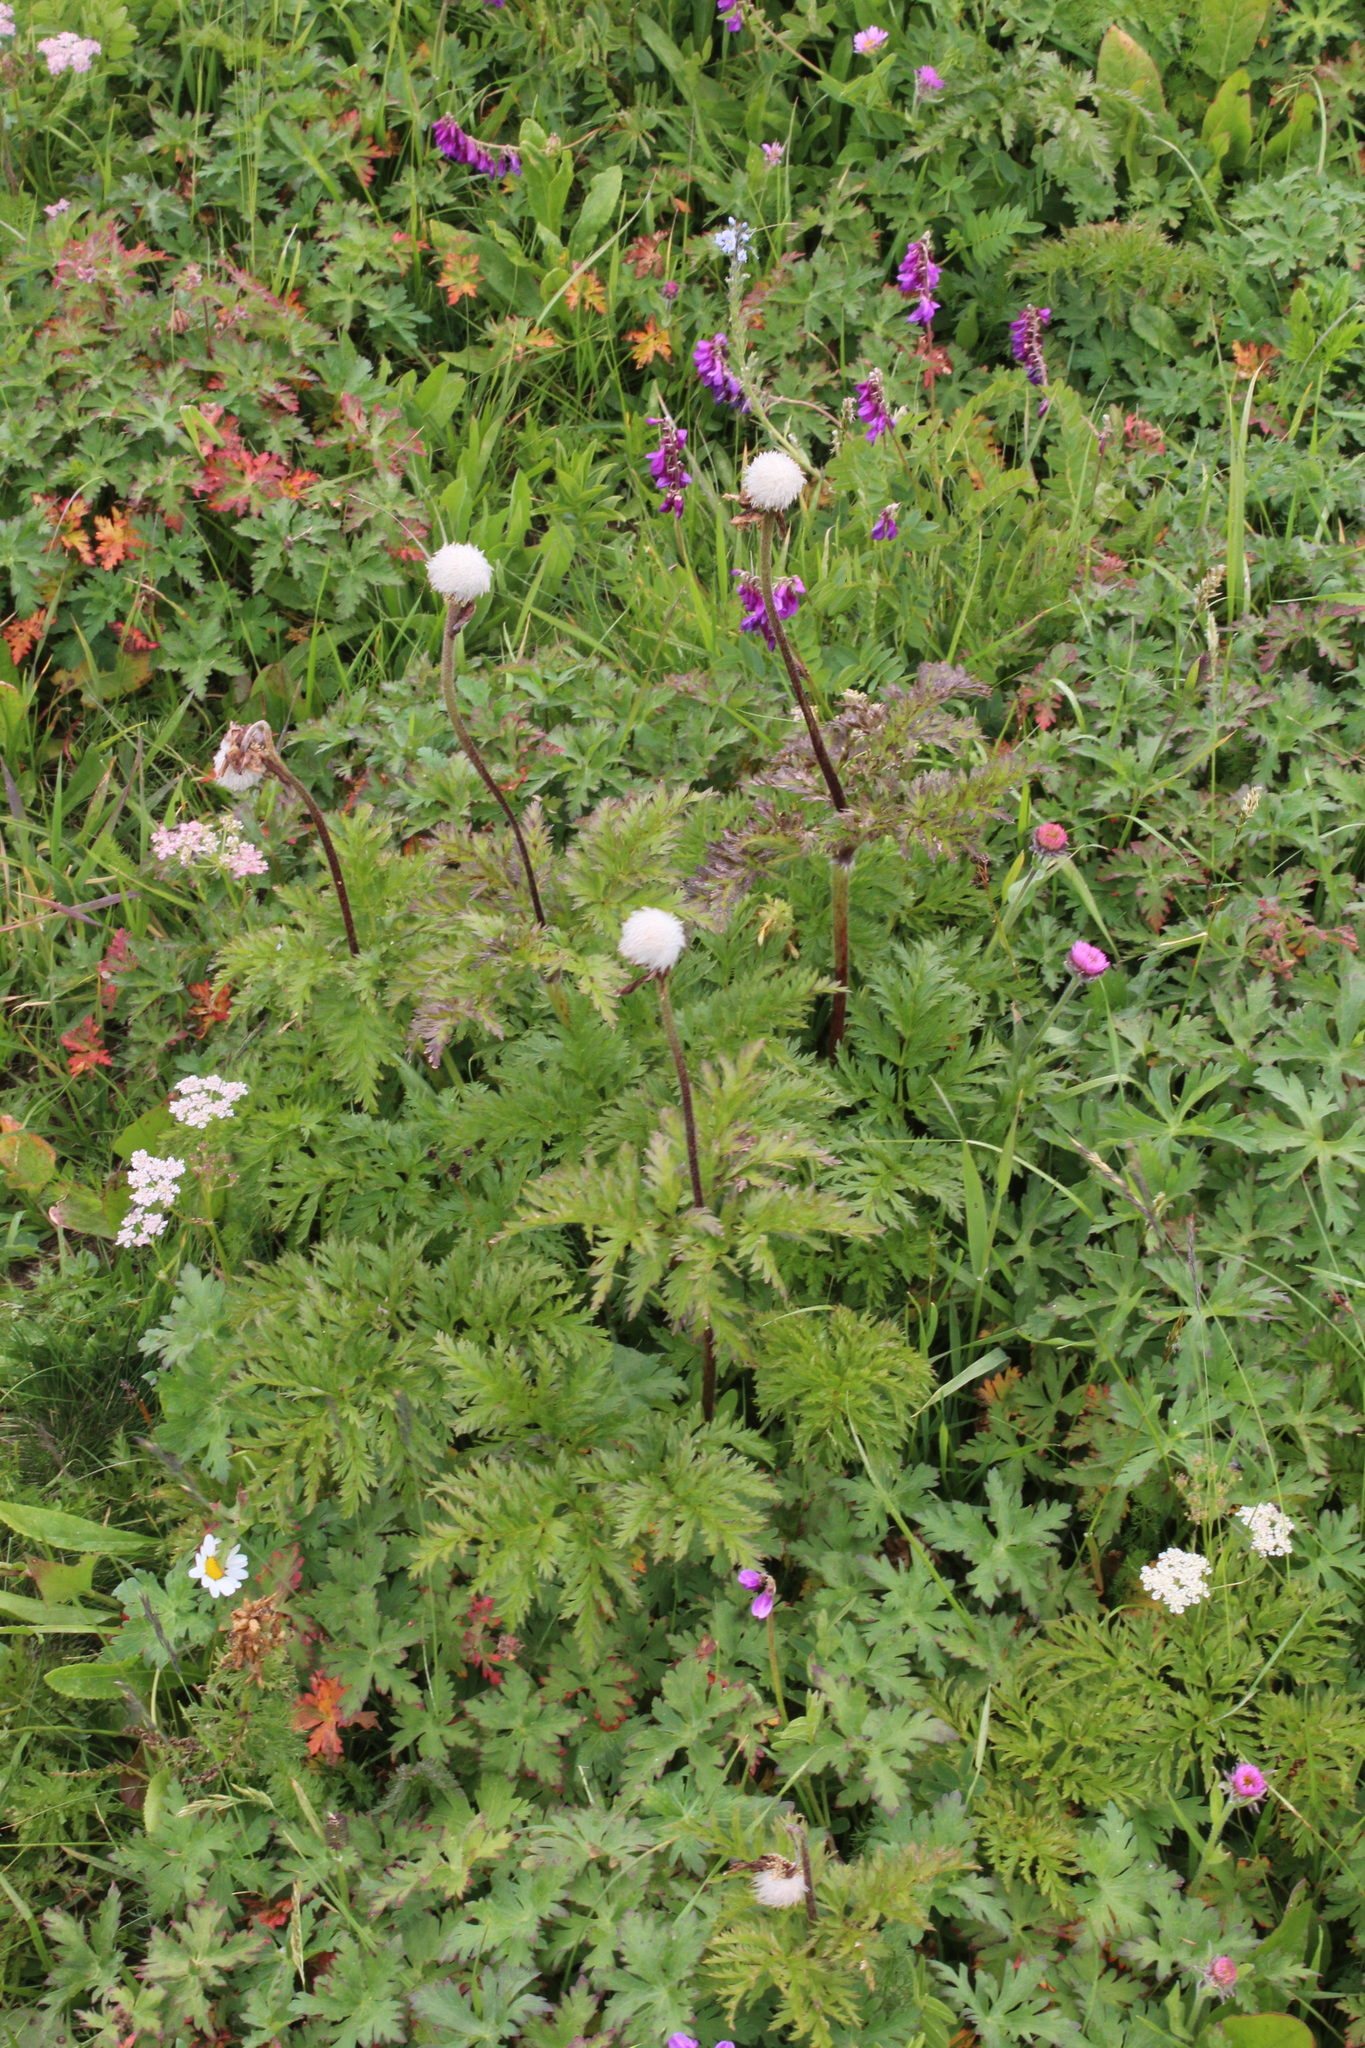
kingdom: Plantae
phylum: Tracheophyta
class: Magnoliopsida
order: Ranunculales
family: Ranunculaceae
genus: Pulsatilla
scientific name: Pulsatilla aurea
